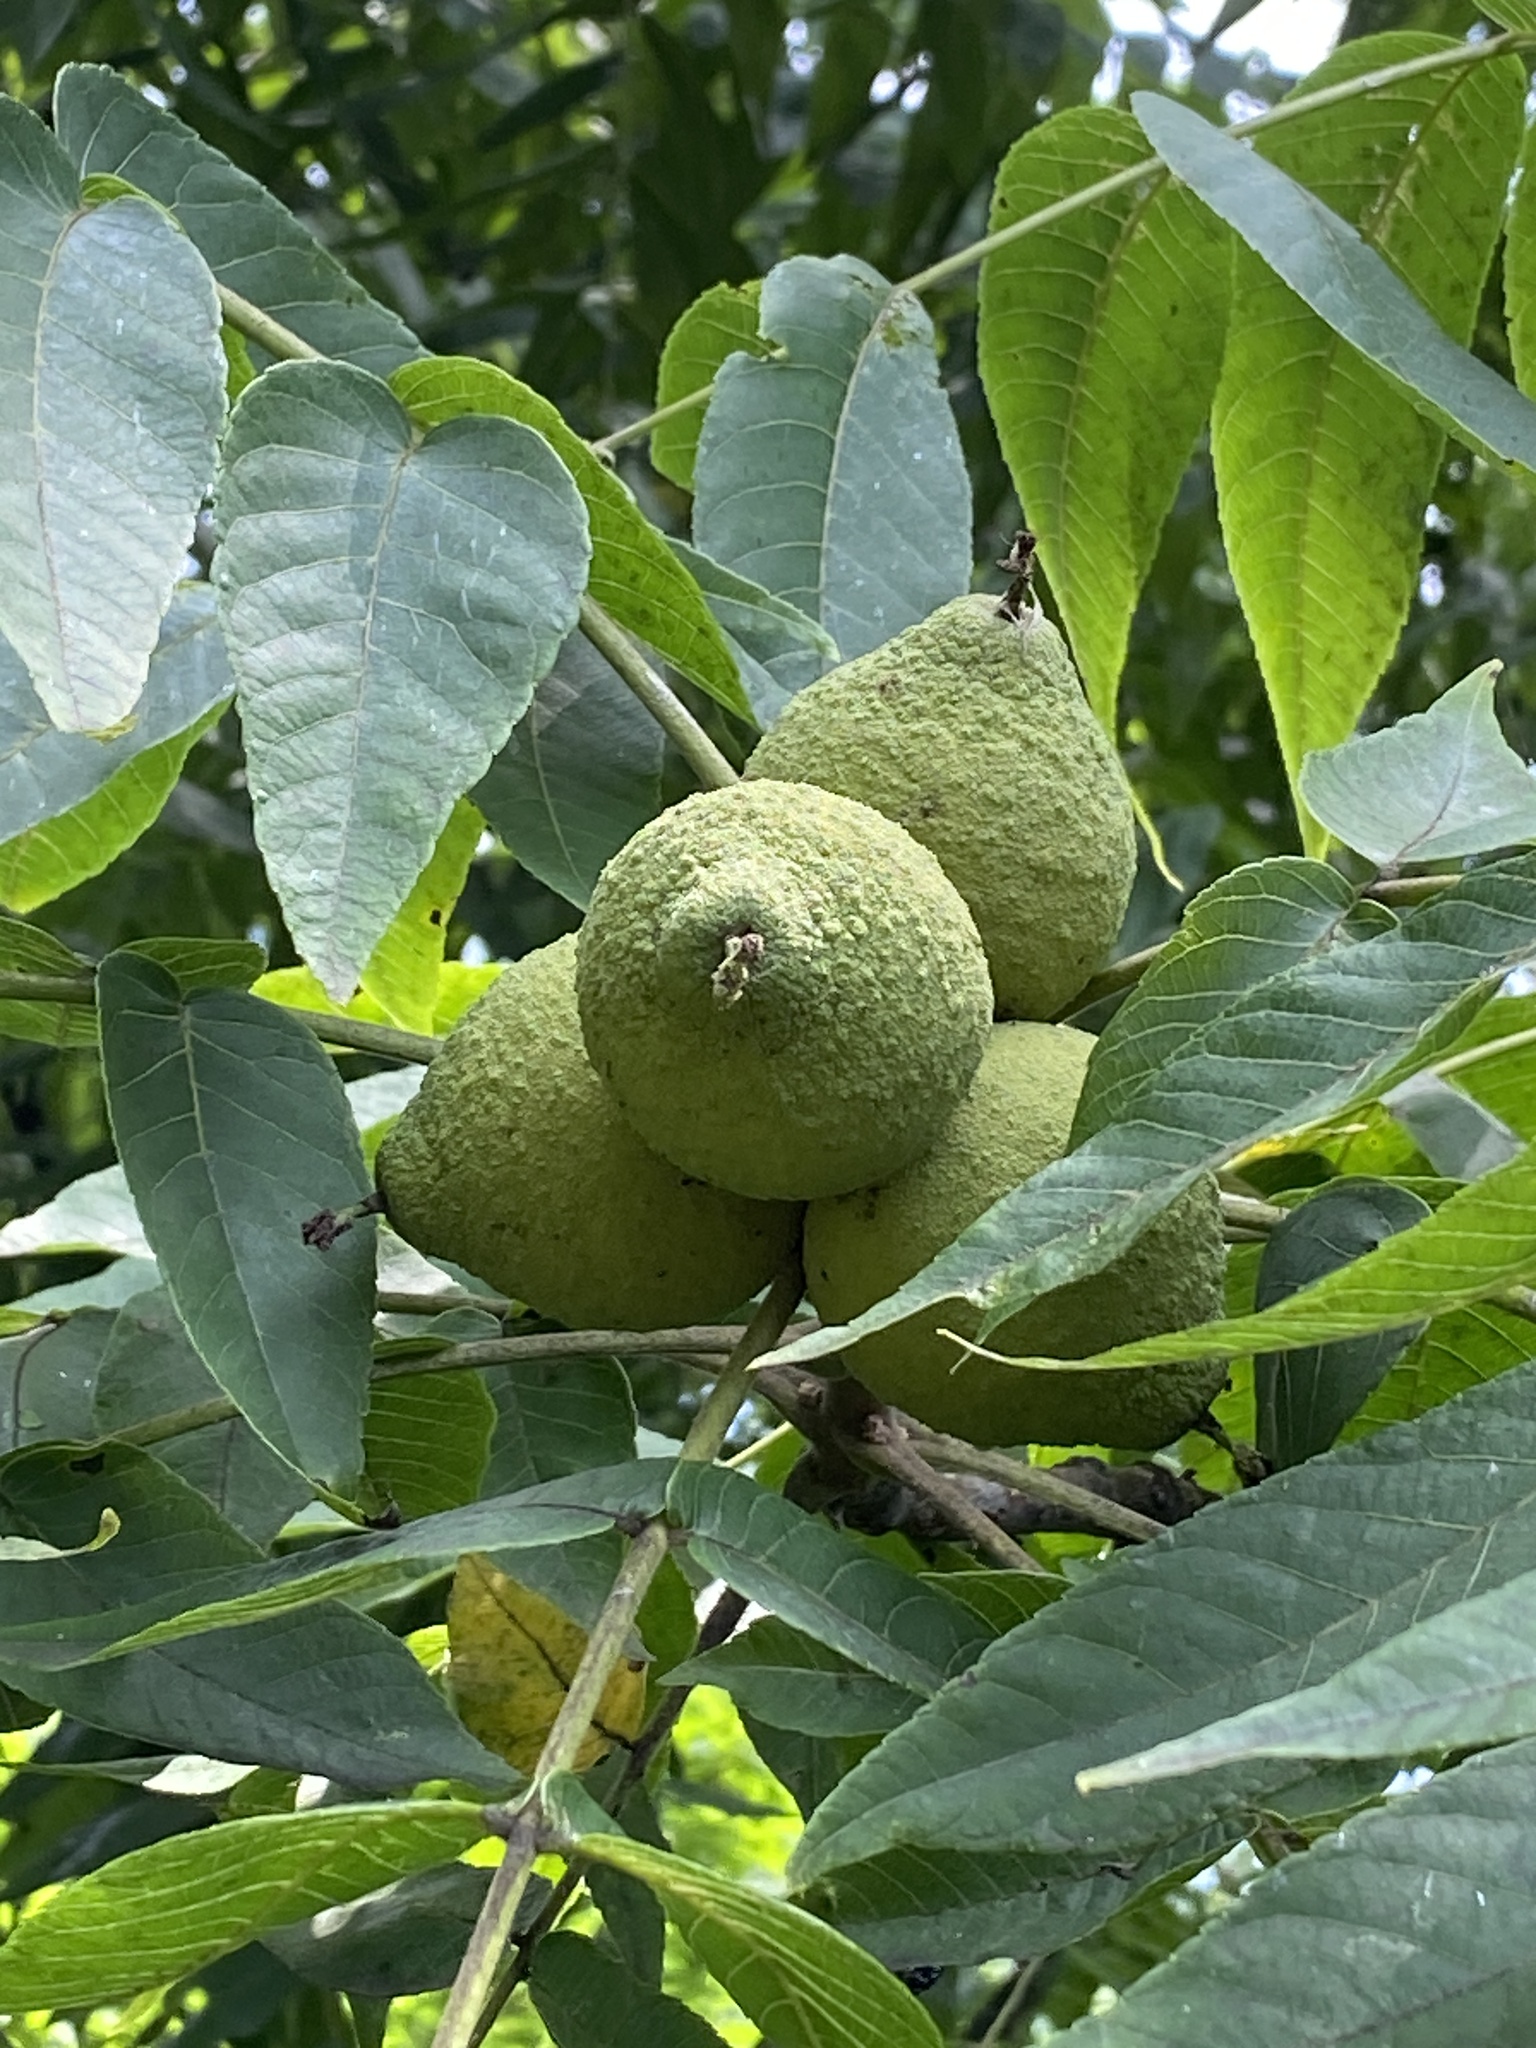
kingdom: Plantae
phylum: Tracheophyta
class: Magnoliopsida
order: Fagales
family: Juglandaceae
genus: Juglans
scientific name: Juglans nigra
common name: Black walnut
